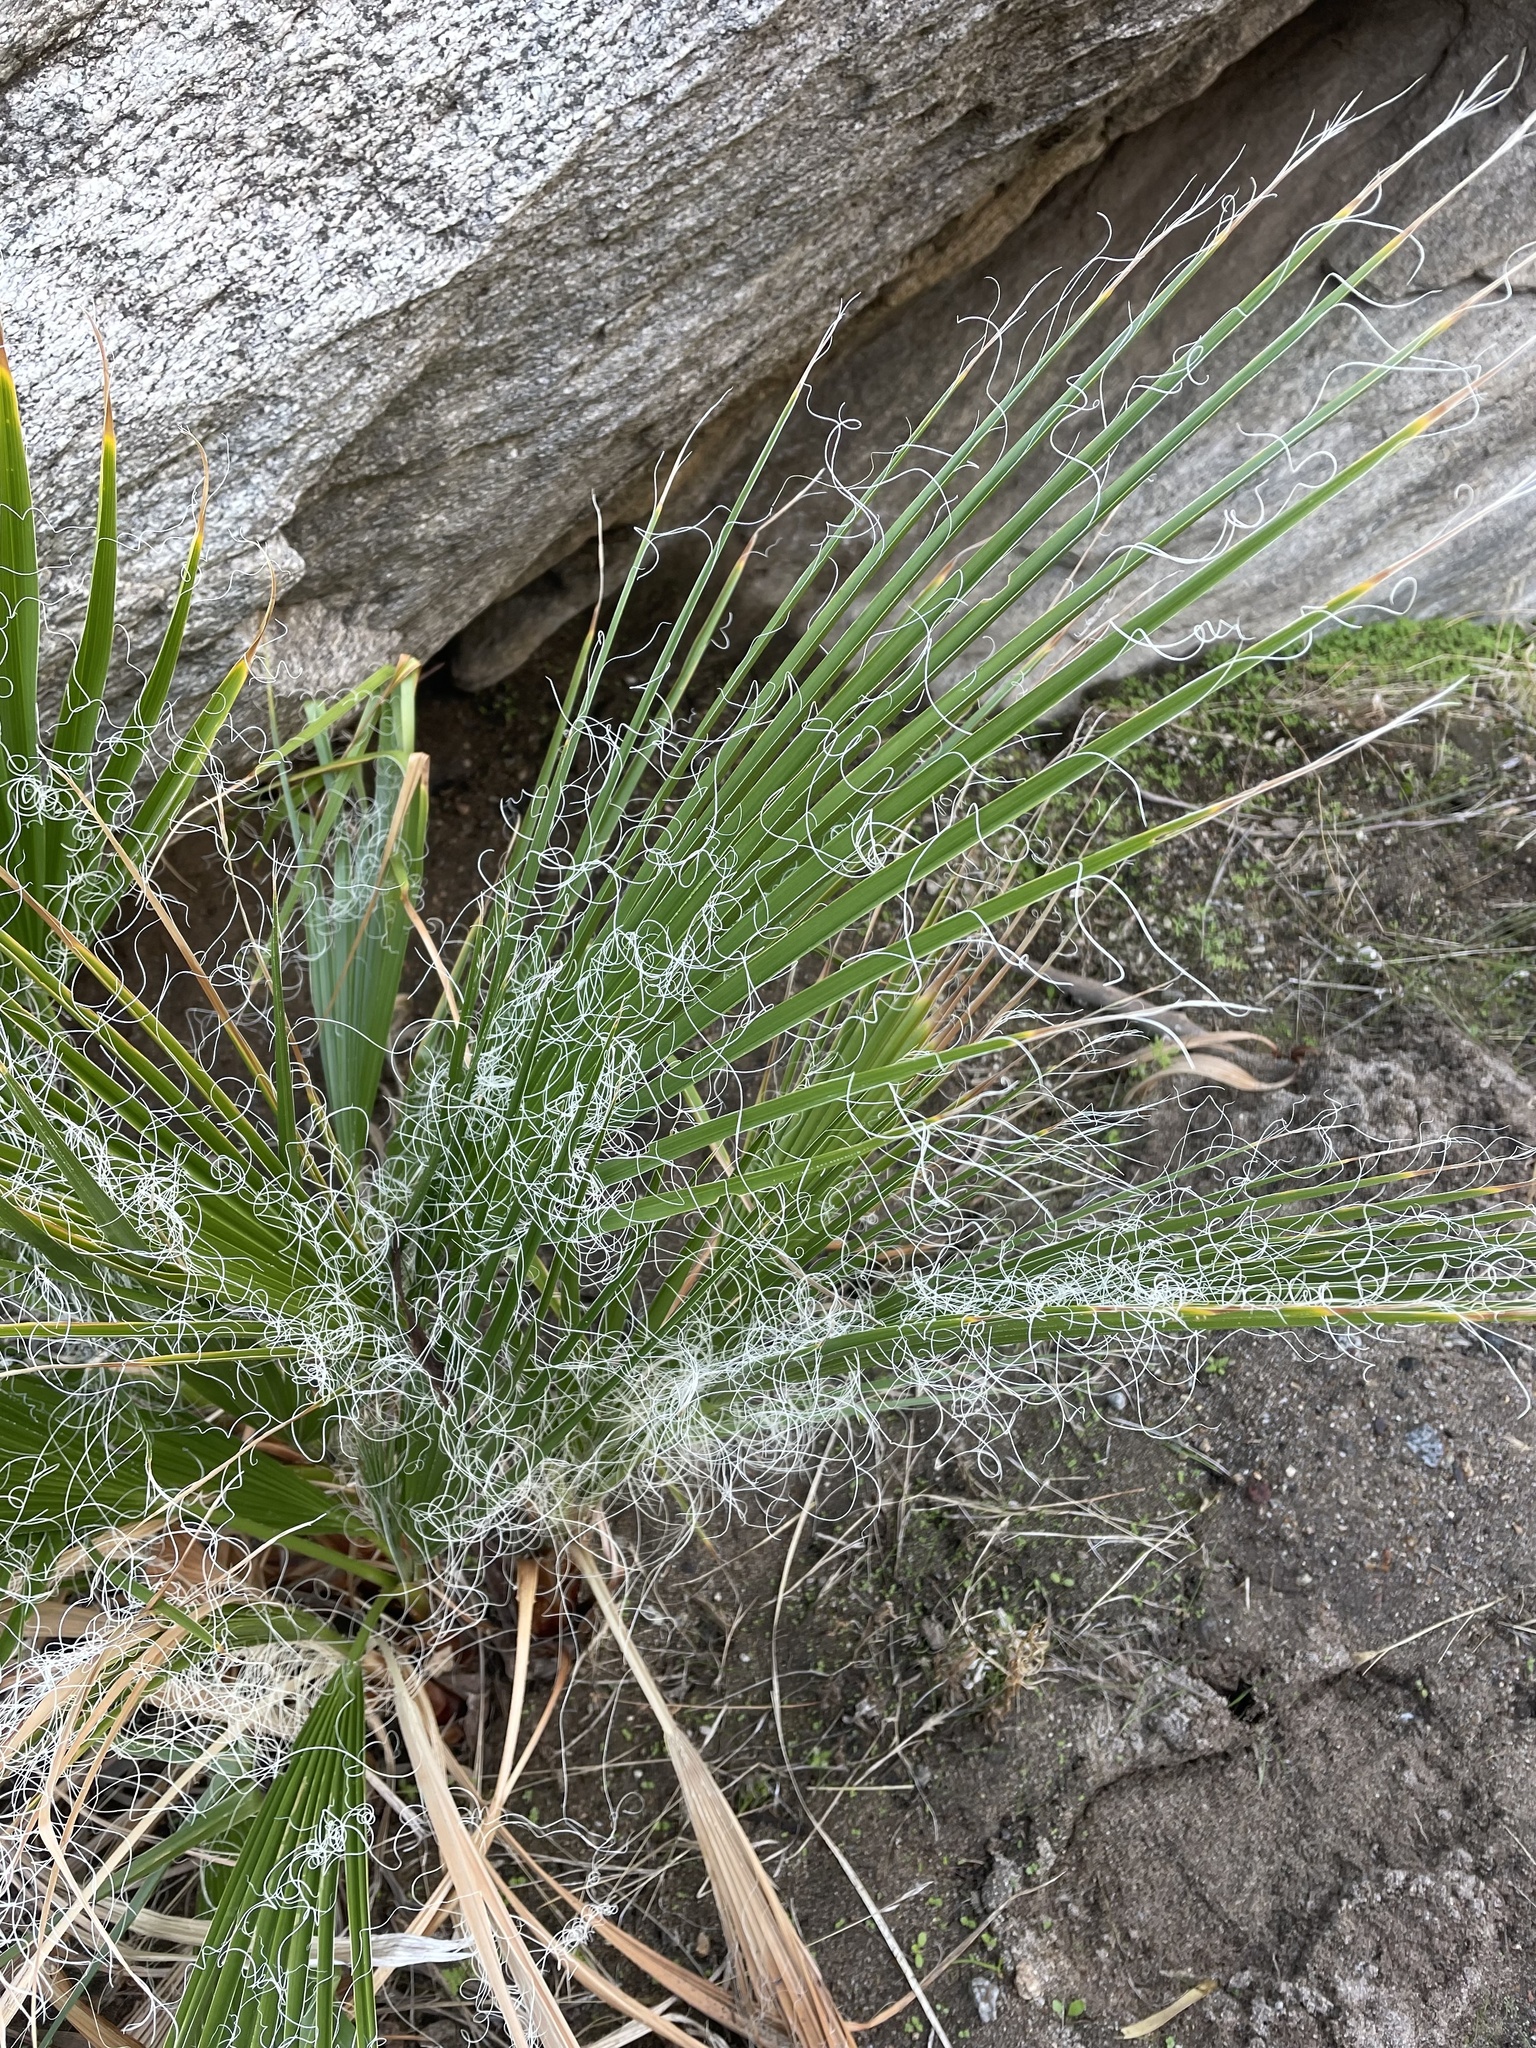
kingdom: Plantae
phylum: Tracheophyta
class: Liliopsida
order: Arecales
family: Arecaceae
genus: Washingtonia
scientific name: Washingtonia filifera
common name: California fan palm
